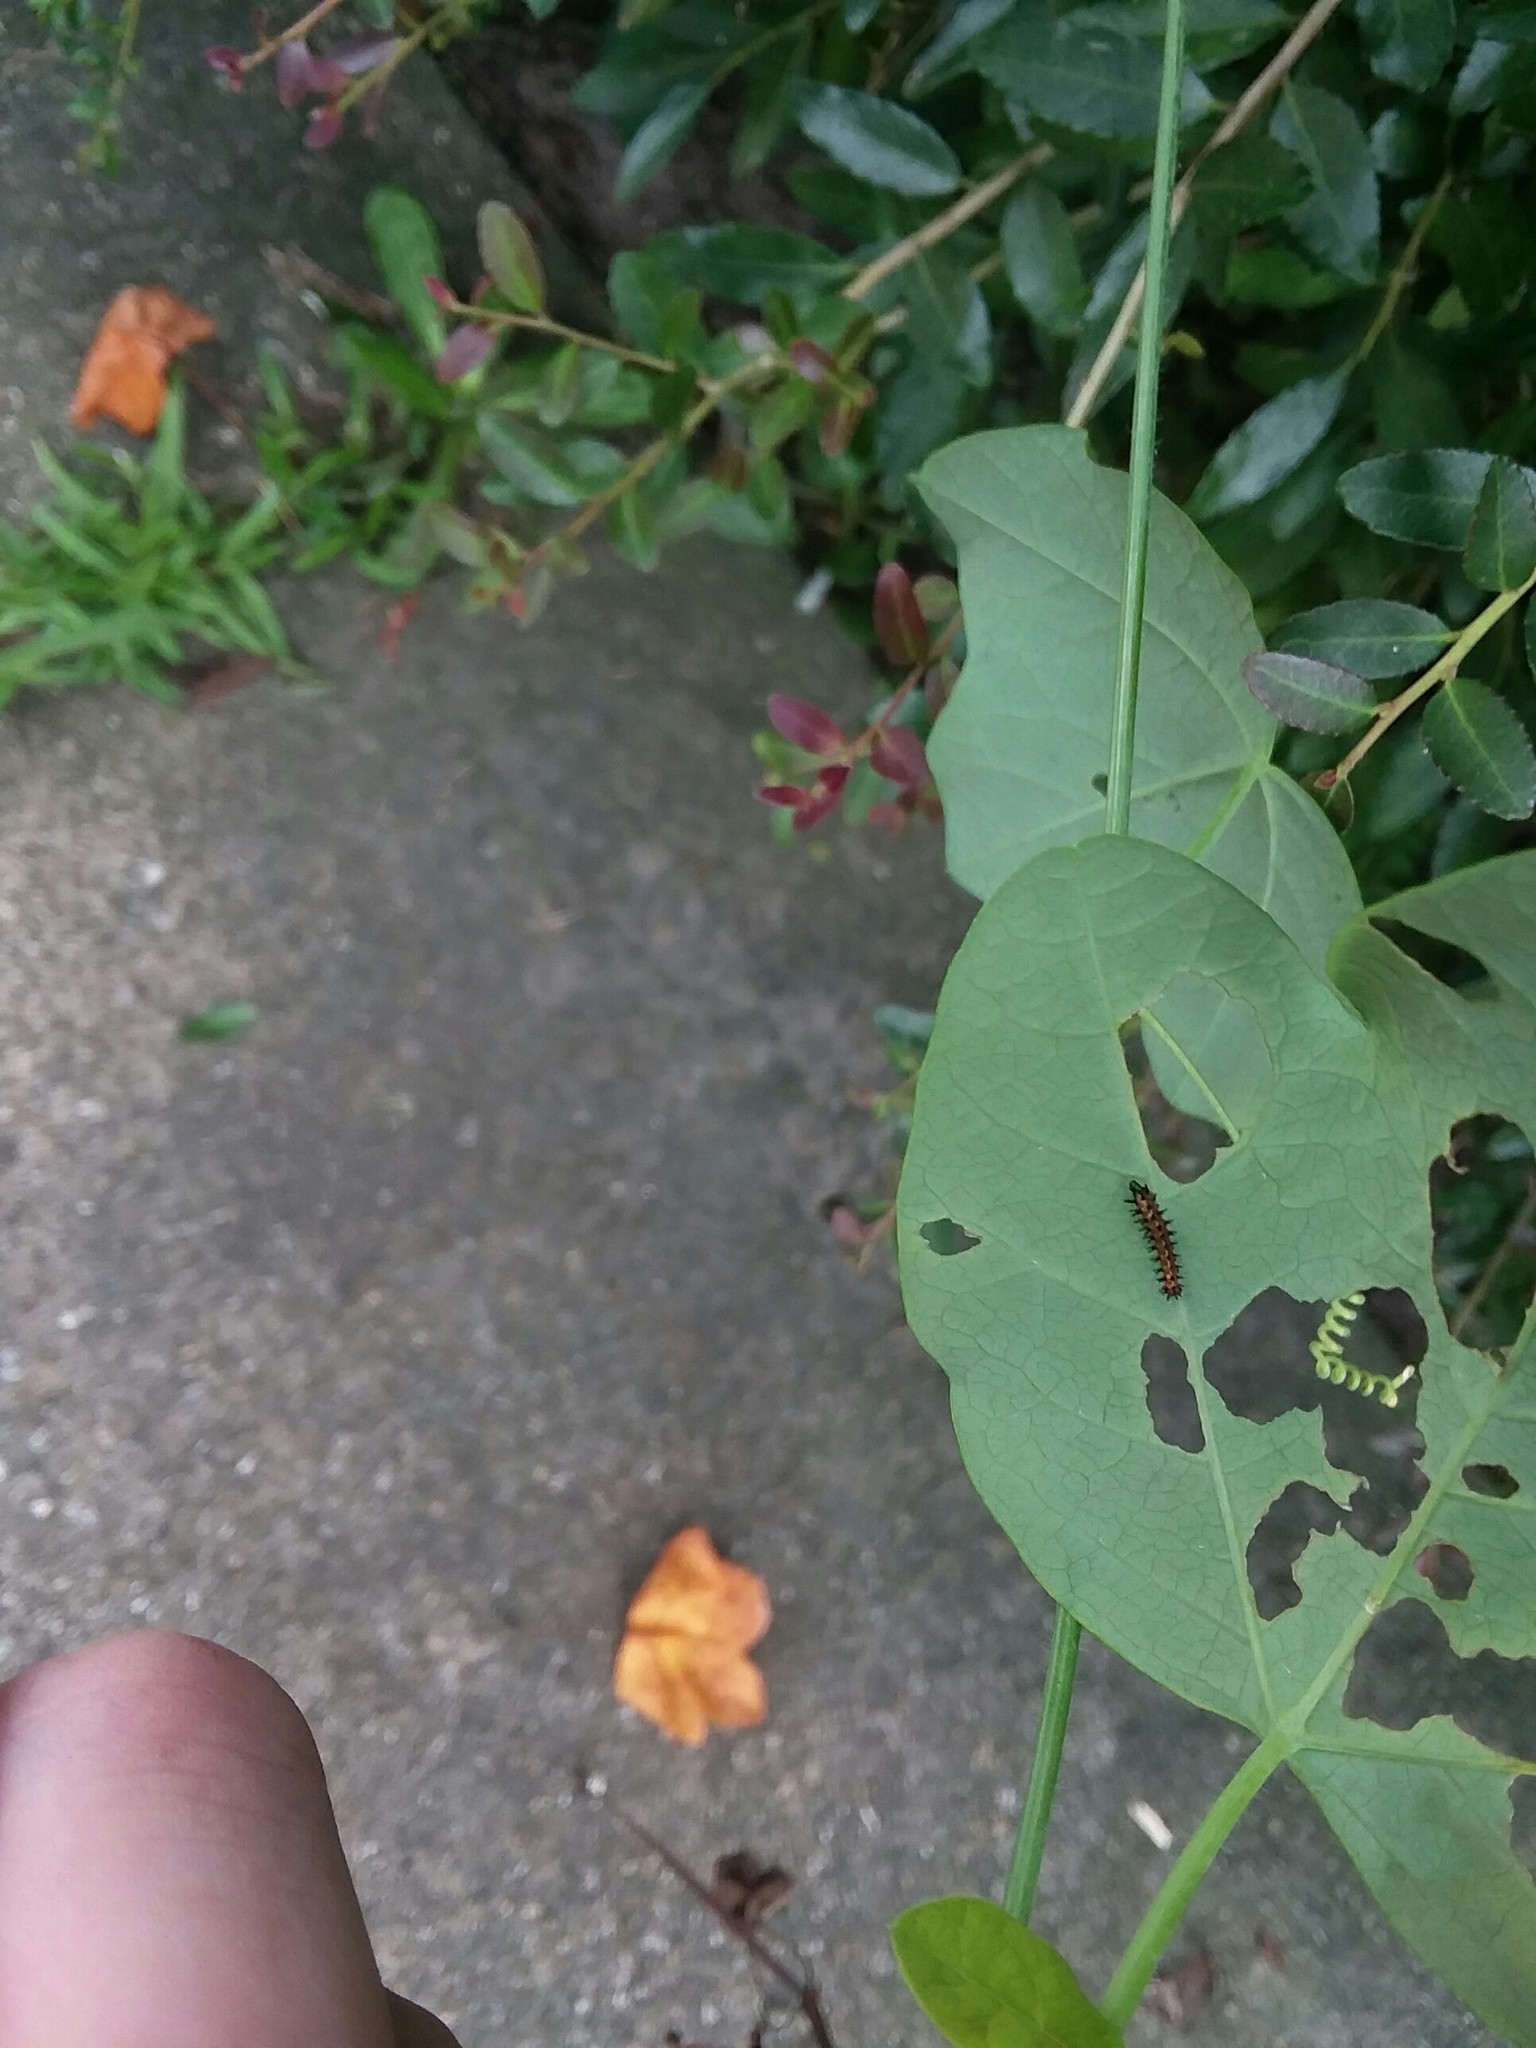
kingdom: Animalia
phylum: Arthropoda
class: Insecta
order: Lepidoptera
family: Nymphalidae
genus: Dione
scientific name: Dione vanillae
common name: Gulf fritillary
